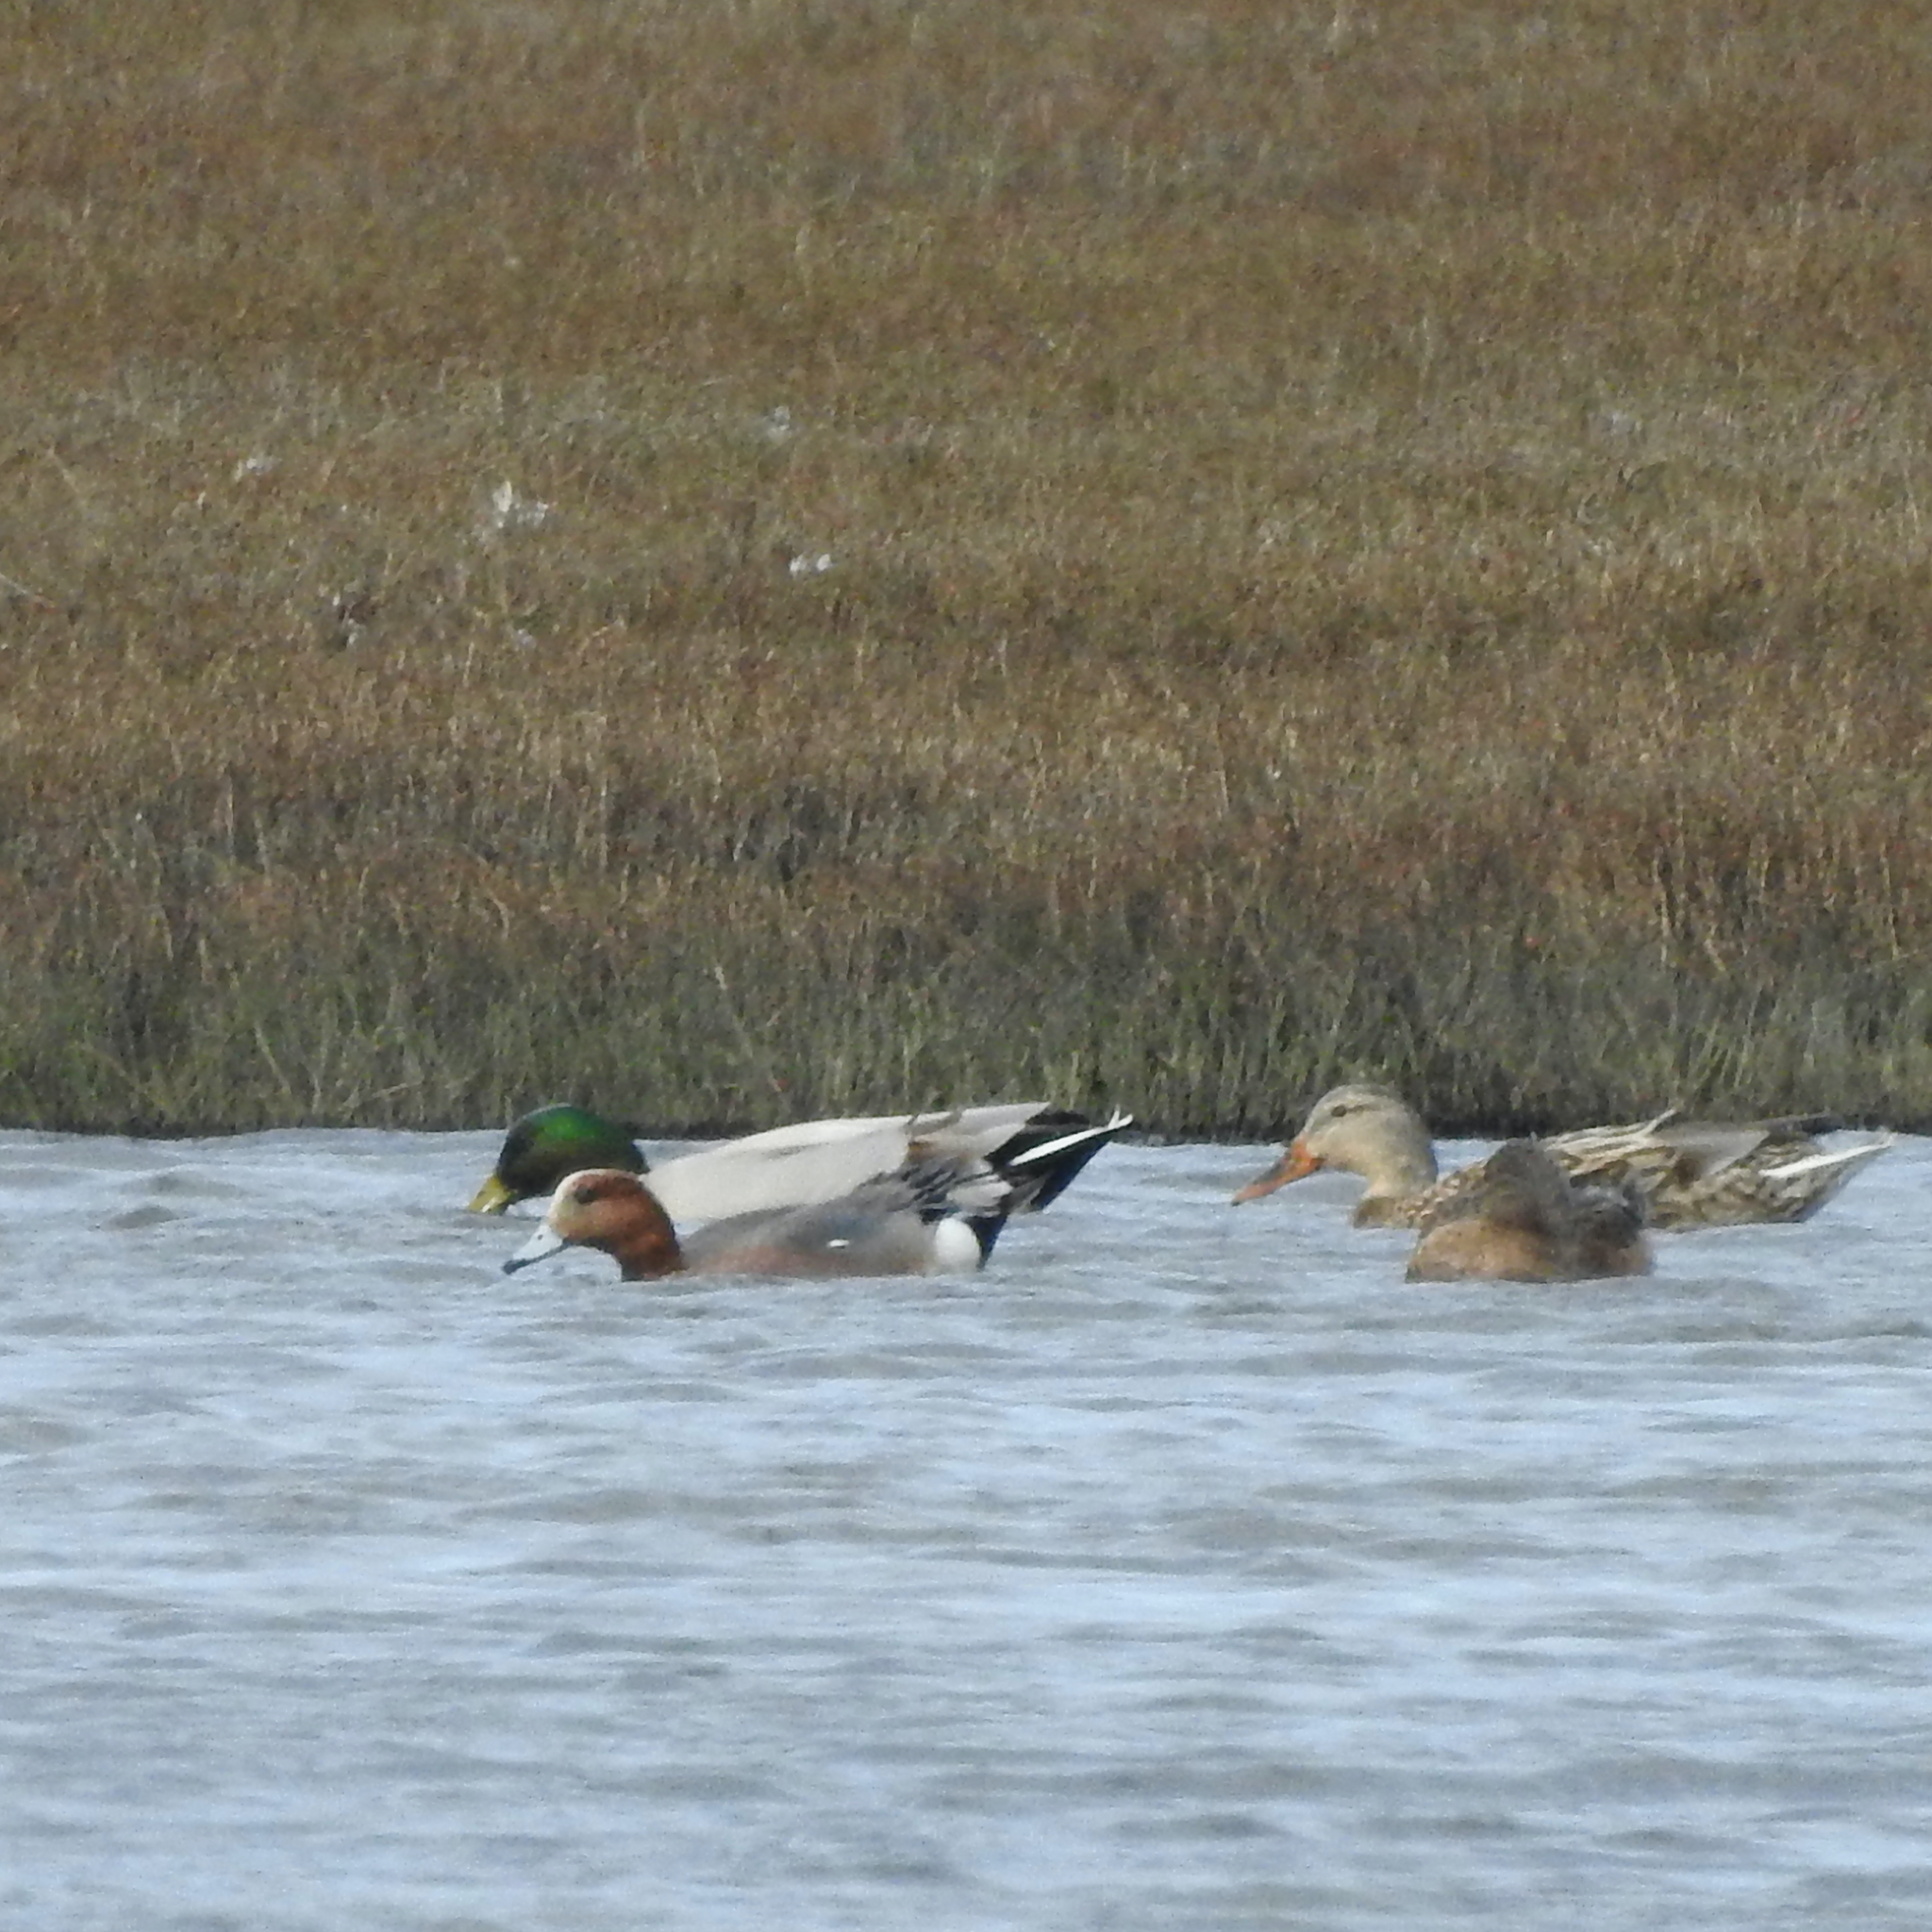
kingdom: Animalia
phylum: Chordata
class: Aves
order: Anseriformes
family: Anatidae
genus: Mareca
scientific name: Mareca penelope
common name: Eurasian wigeon
